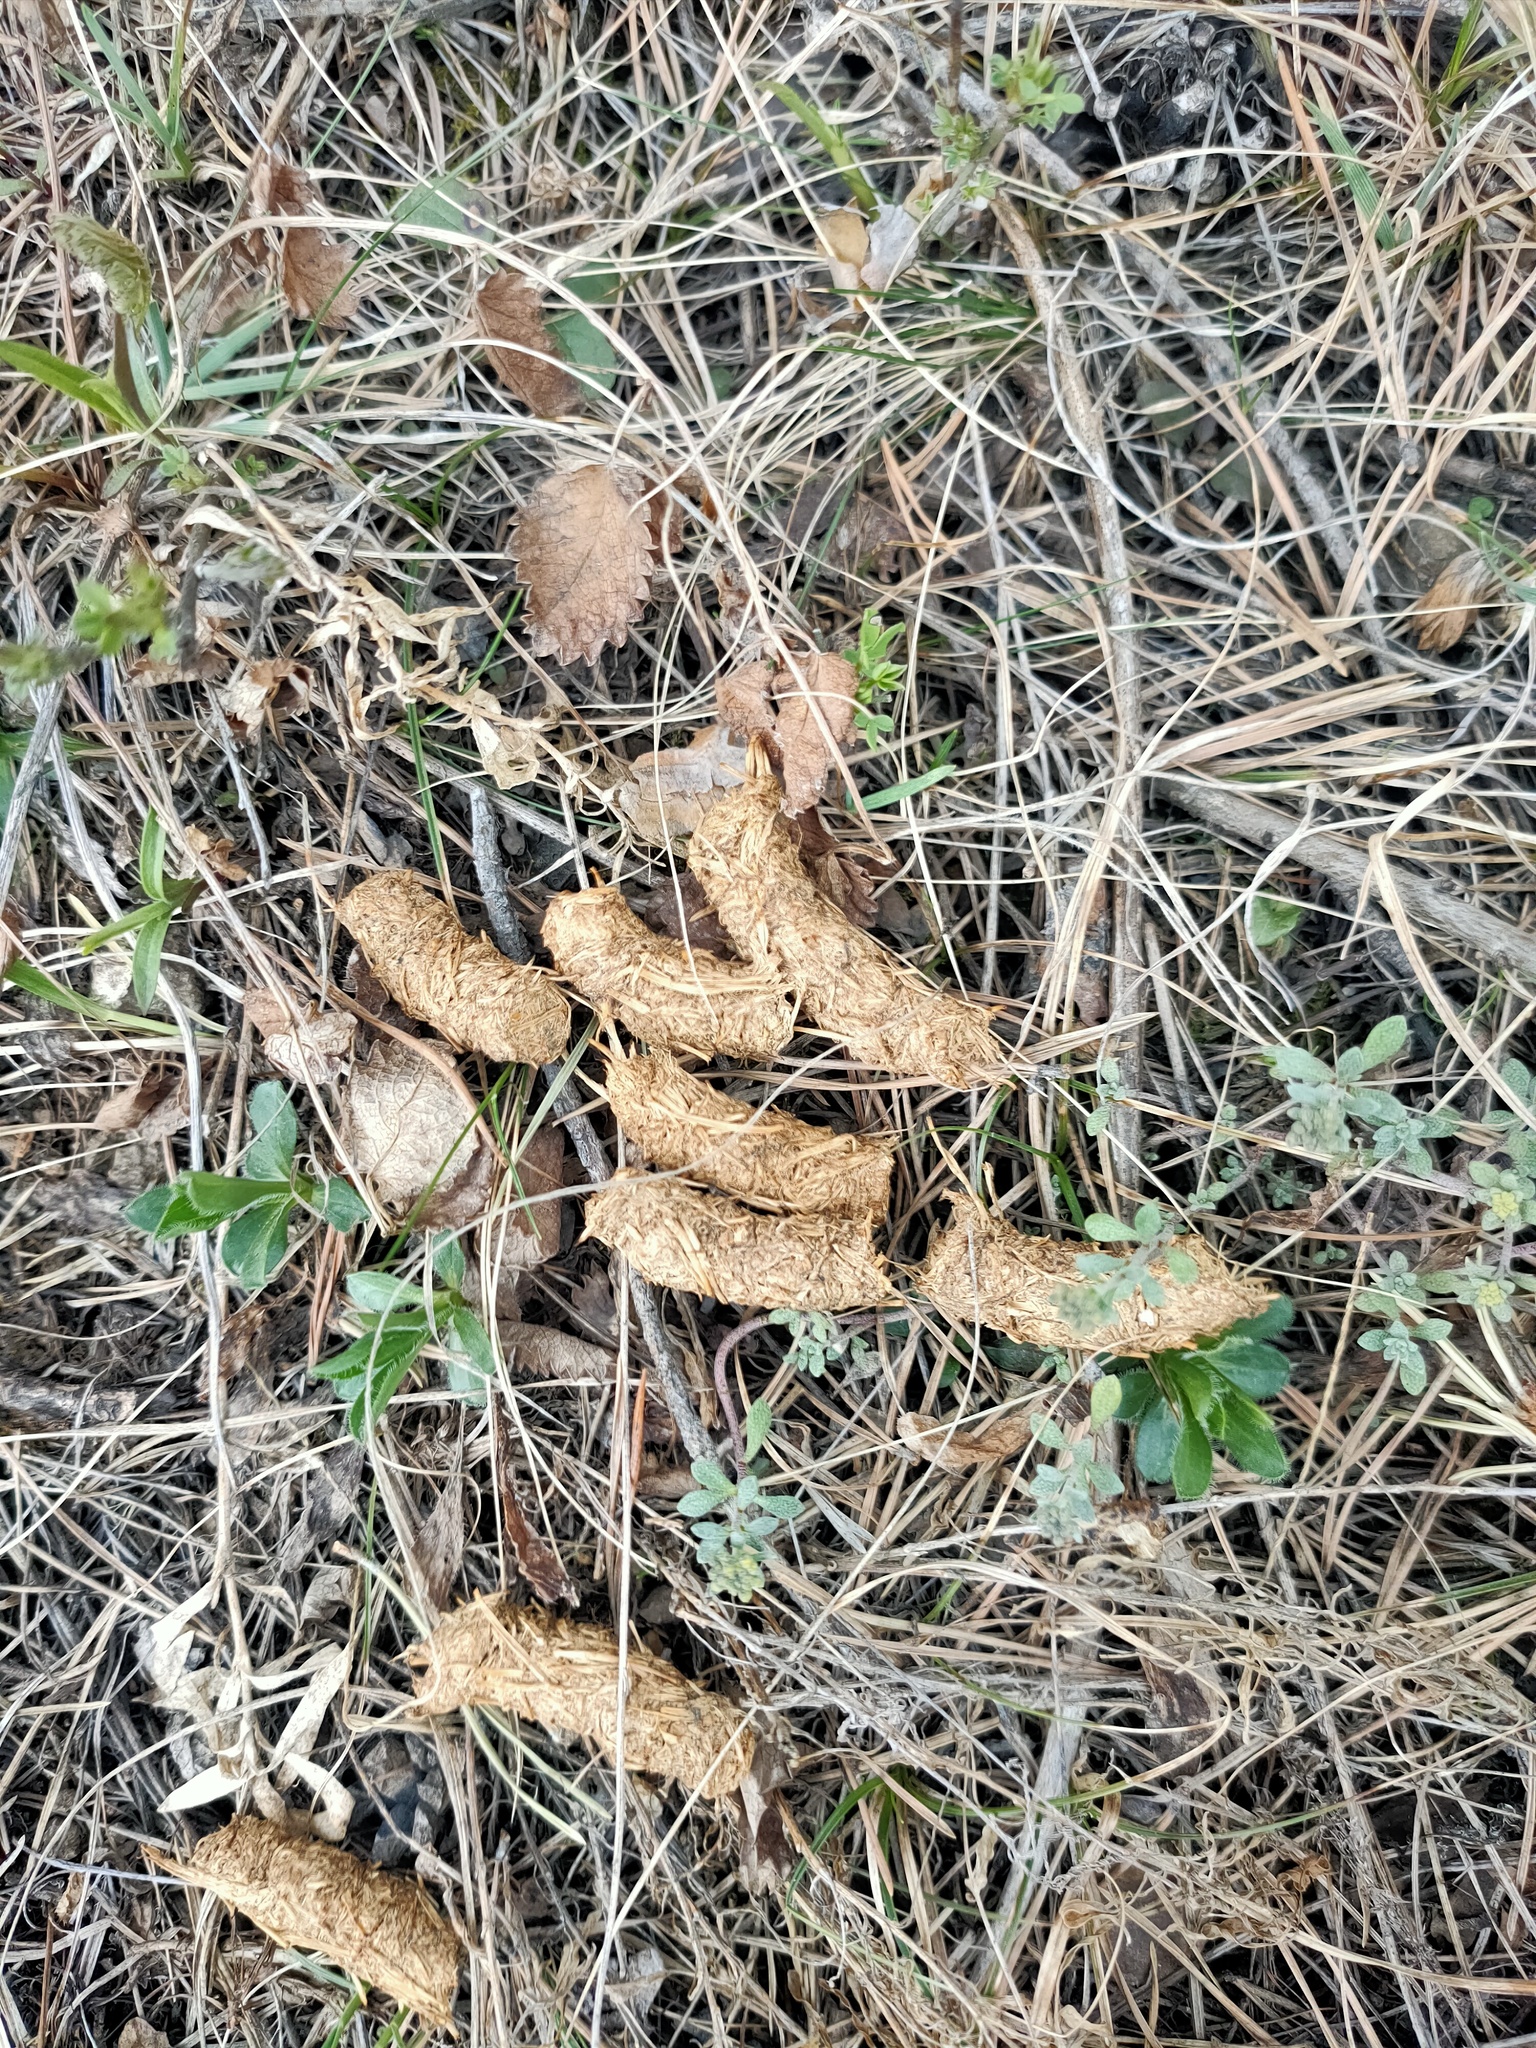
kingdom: Animalia
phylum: Chordata
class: Aves
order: Galliformes
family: Phasianidae
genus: Lyrurus
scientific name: Lyrurus tetrix
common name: Black grouse
